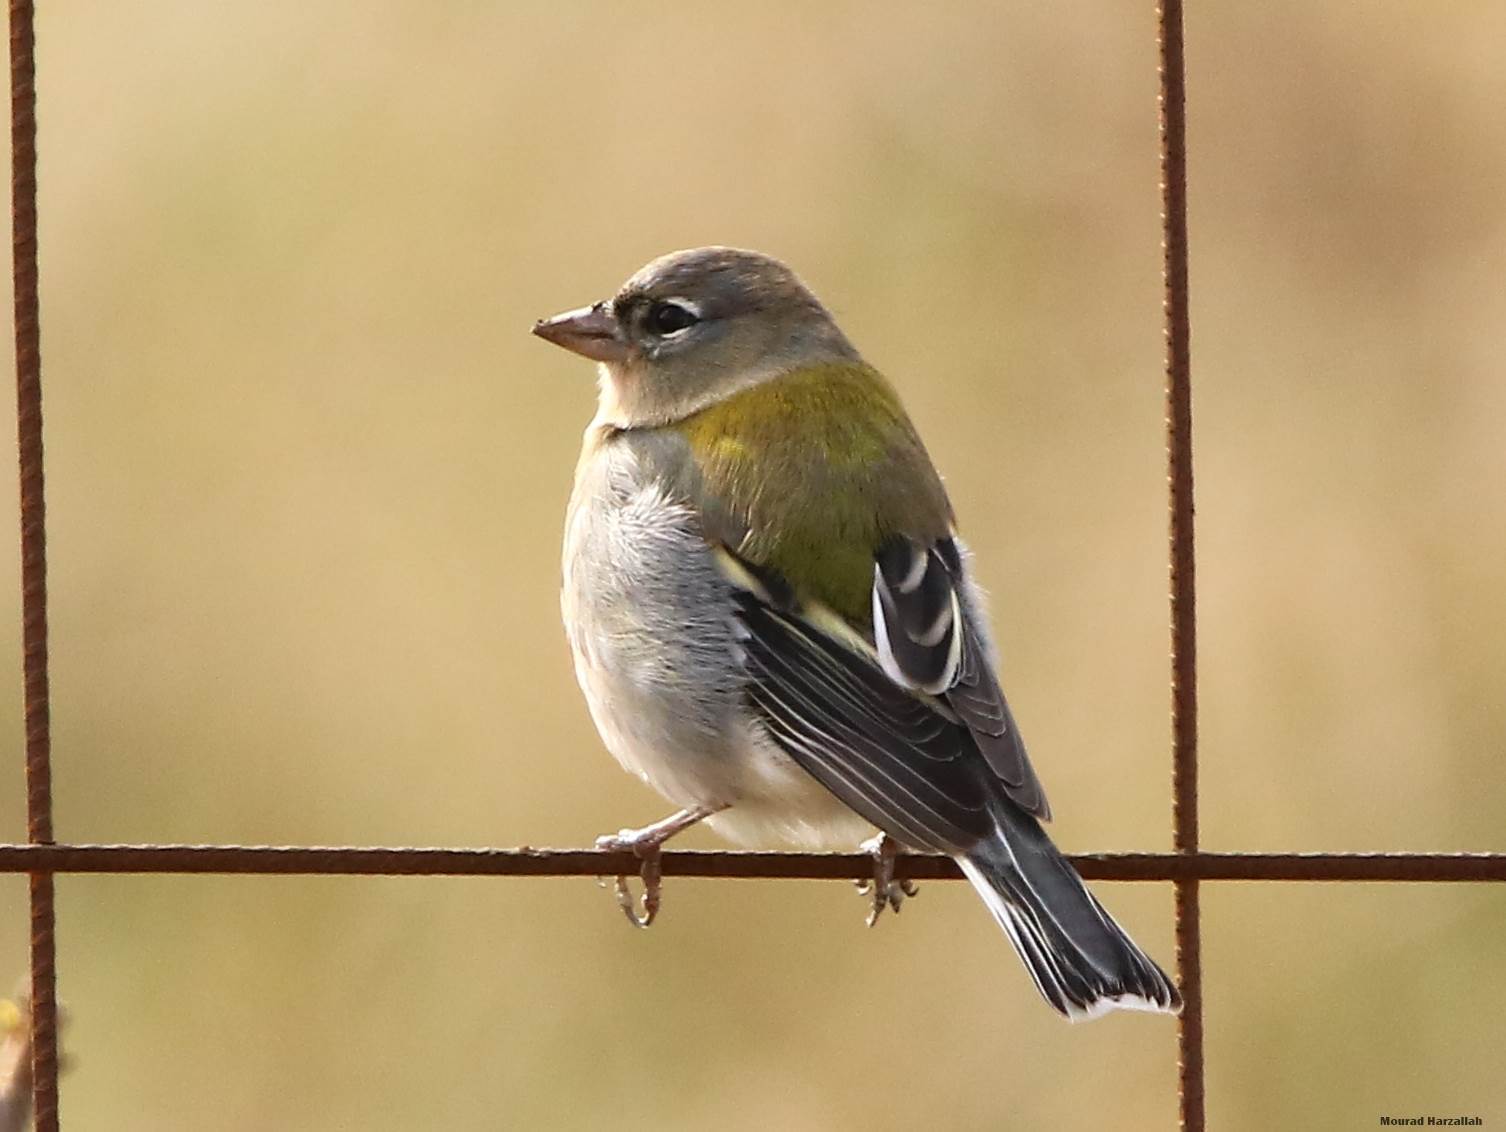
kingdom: Animalia
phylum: Chordata
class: Aves
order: Passeriformes
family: Fringillidae
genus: Fringilla
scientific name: Fringilla spodiogenys
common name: African chaffinch
